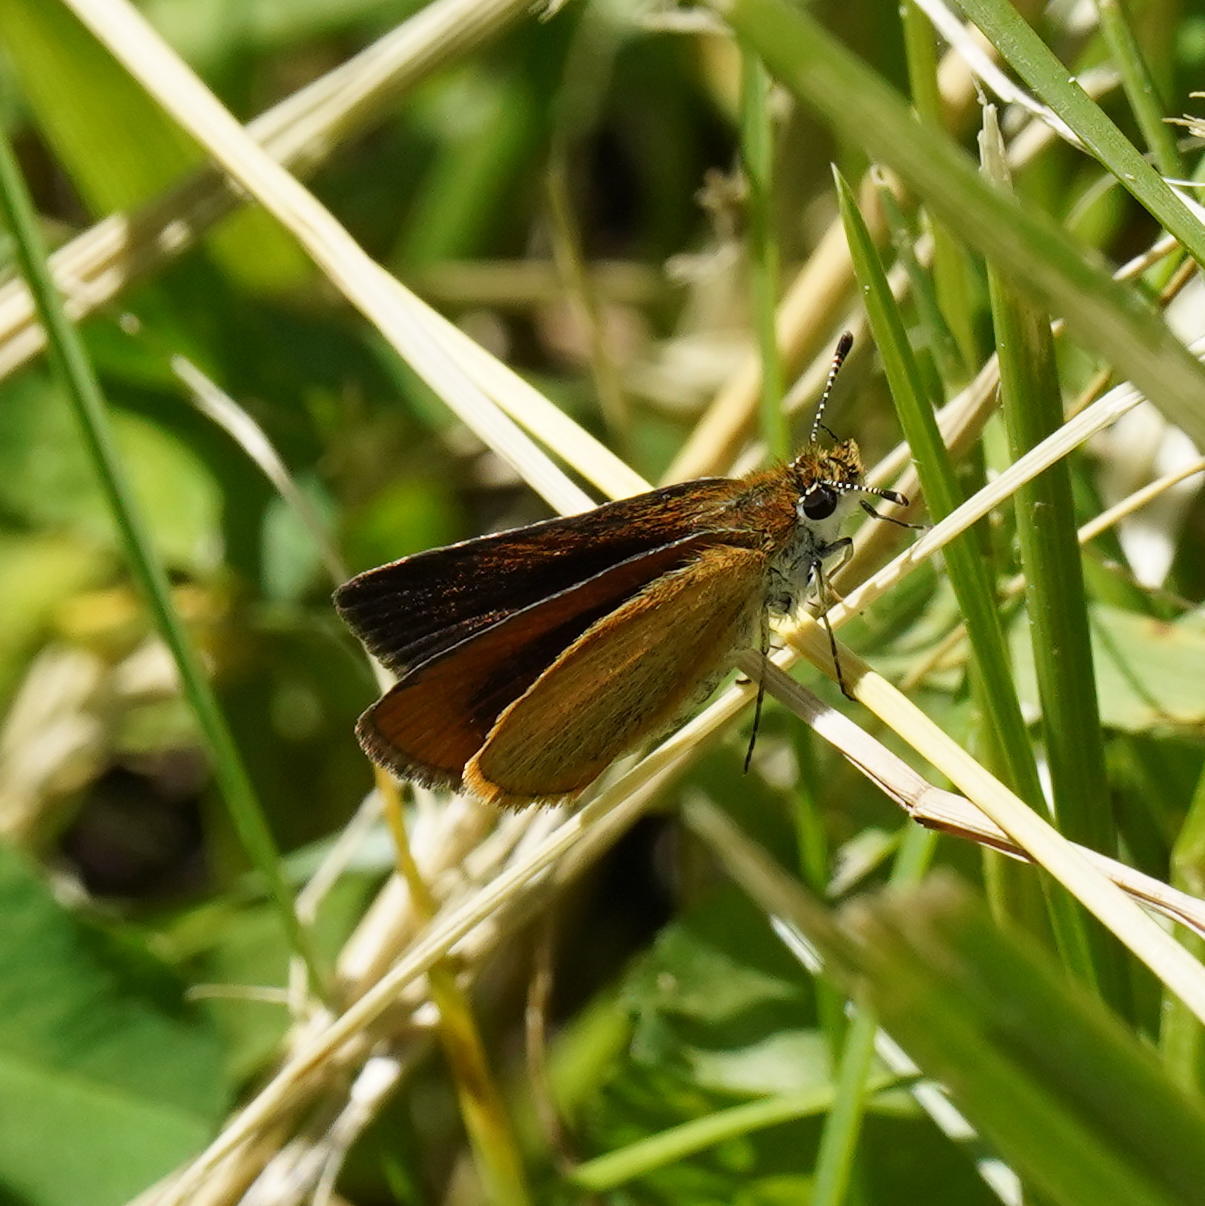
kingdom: Animalia
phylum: Arthropoda
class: Insecta
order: Lepidoptera
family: Hesperiidae
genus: Ancyloxypha
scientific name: Ancyloxypha numitor
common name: Least skipper
